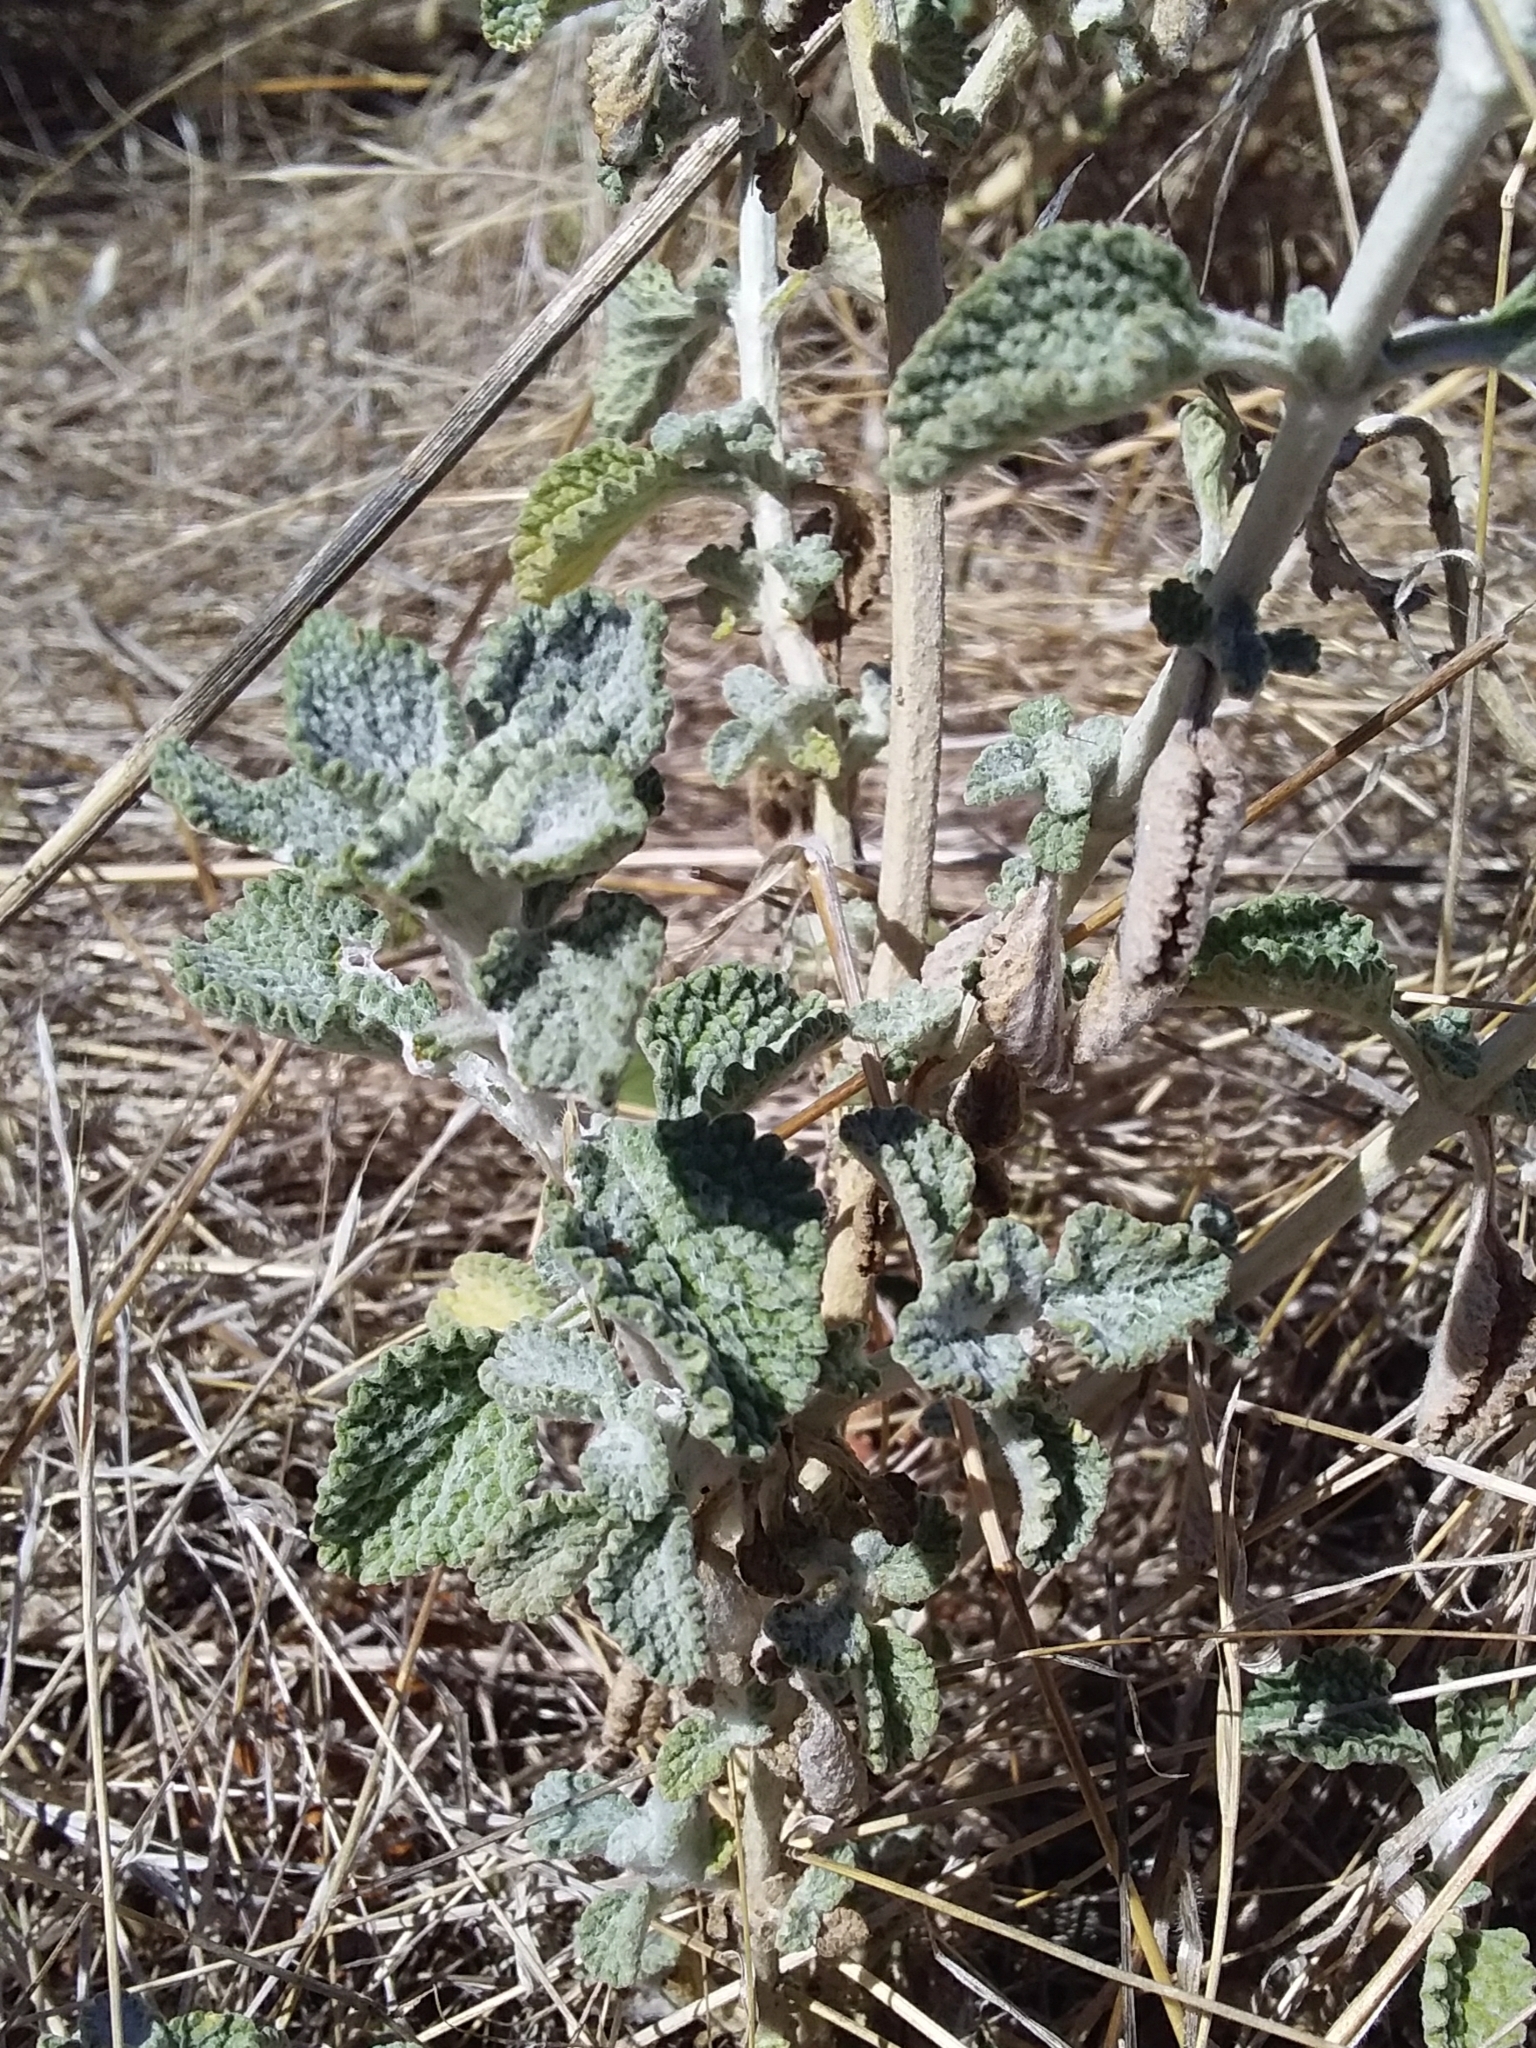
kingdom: Plantae
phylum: Tracheophyta
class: Magnoliopsida
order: Lamiales
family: Lamiaceae
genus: Marrubium
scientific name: Marrubium vulgare
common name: Horehound
